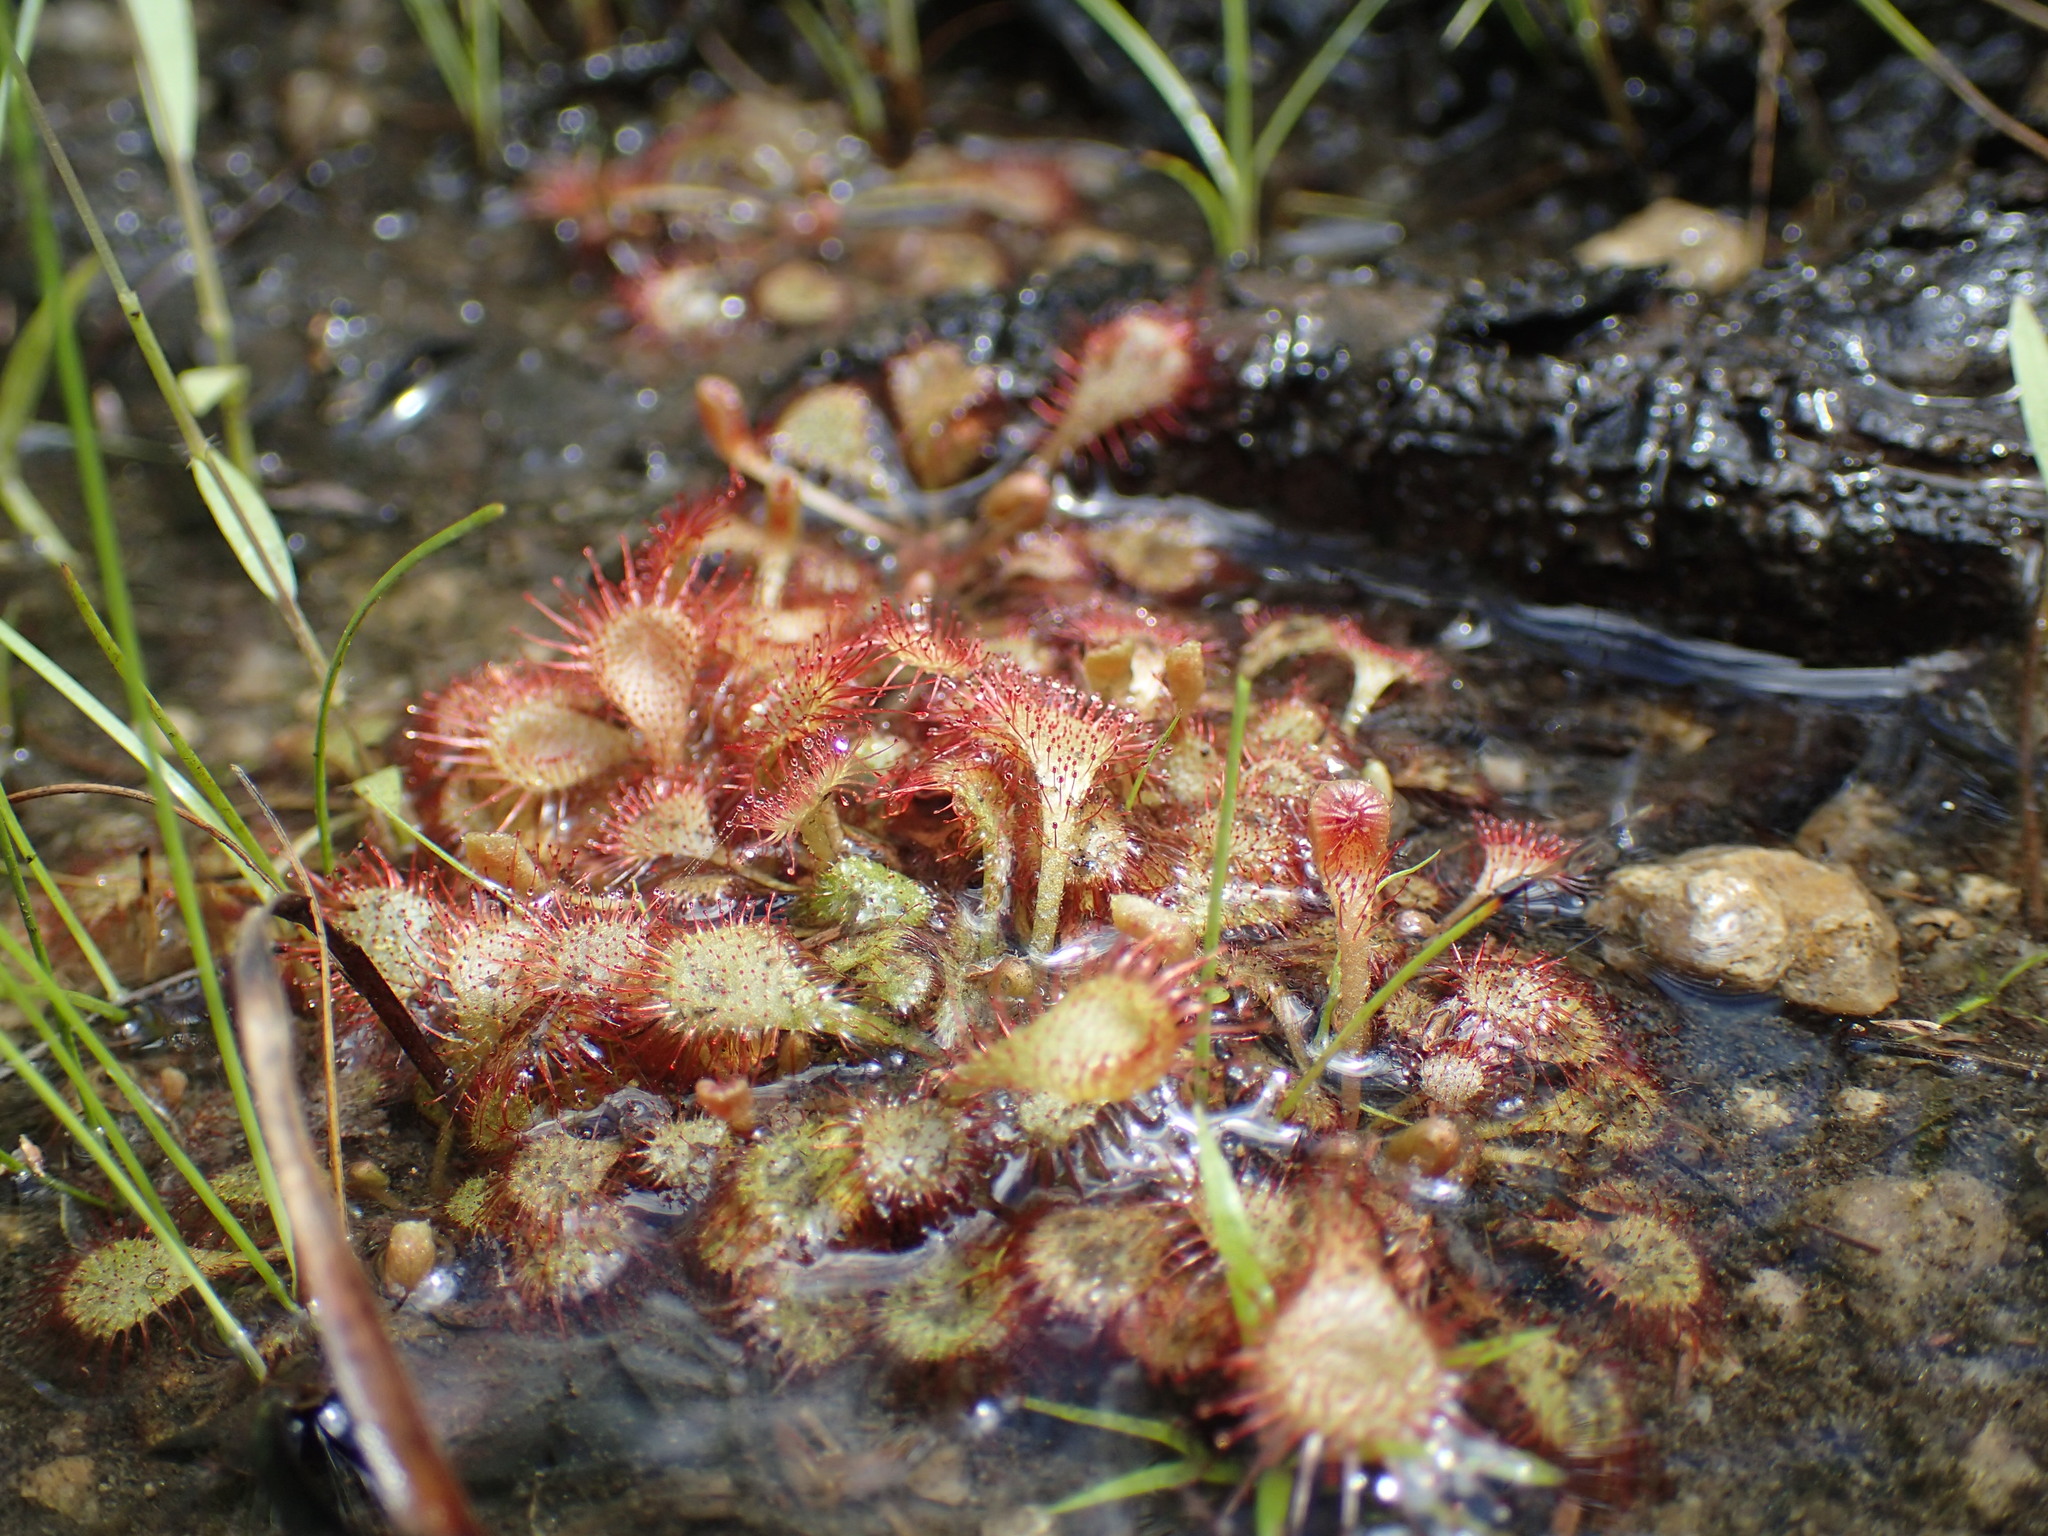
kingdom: Plantae
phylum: Tracheophyta
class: Magnoliopsida
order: Caryophyllales
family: Droseraceae
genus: Drosera
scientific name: Drosera bequaertii
